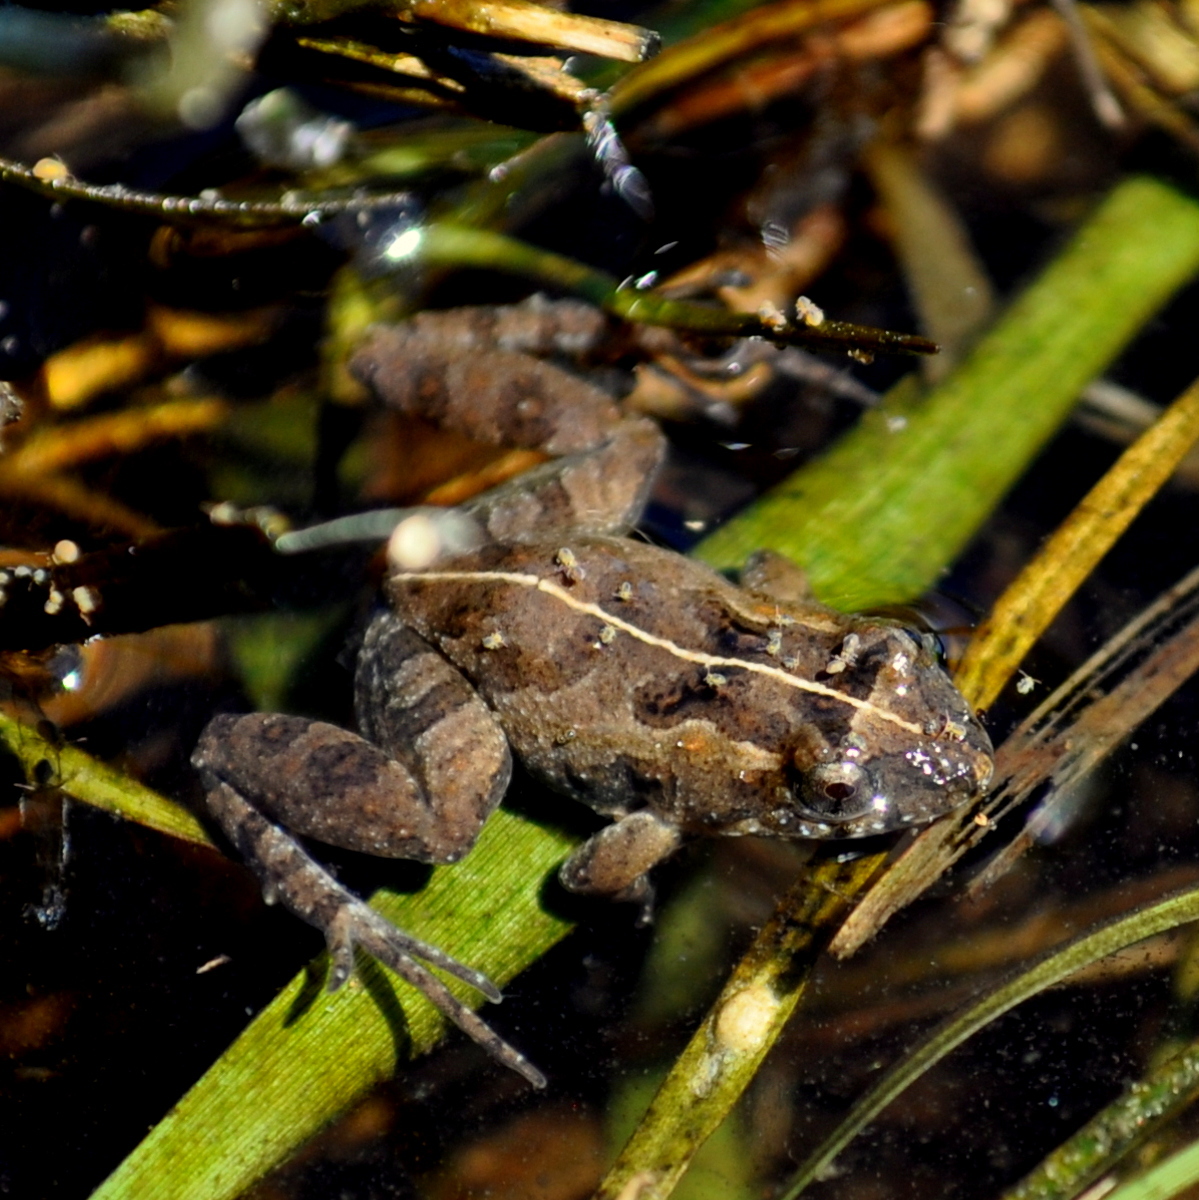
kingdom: Animalia
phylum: Chordata
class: Amphibia
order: Anura
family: Leptodactylidae
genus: Pseudopaludicola
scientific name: Pseudopaludicola falcipes
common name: Hensel’s swamp frog
